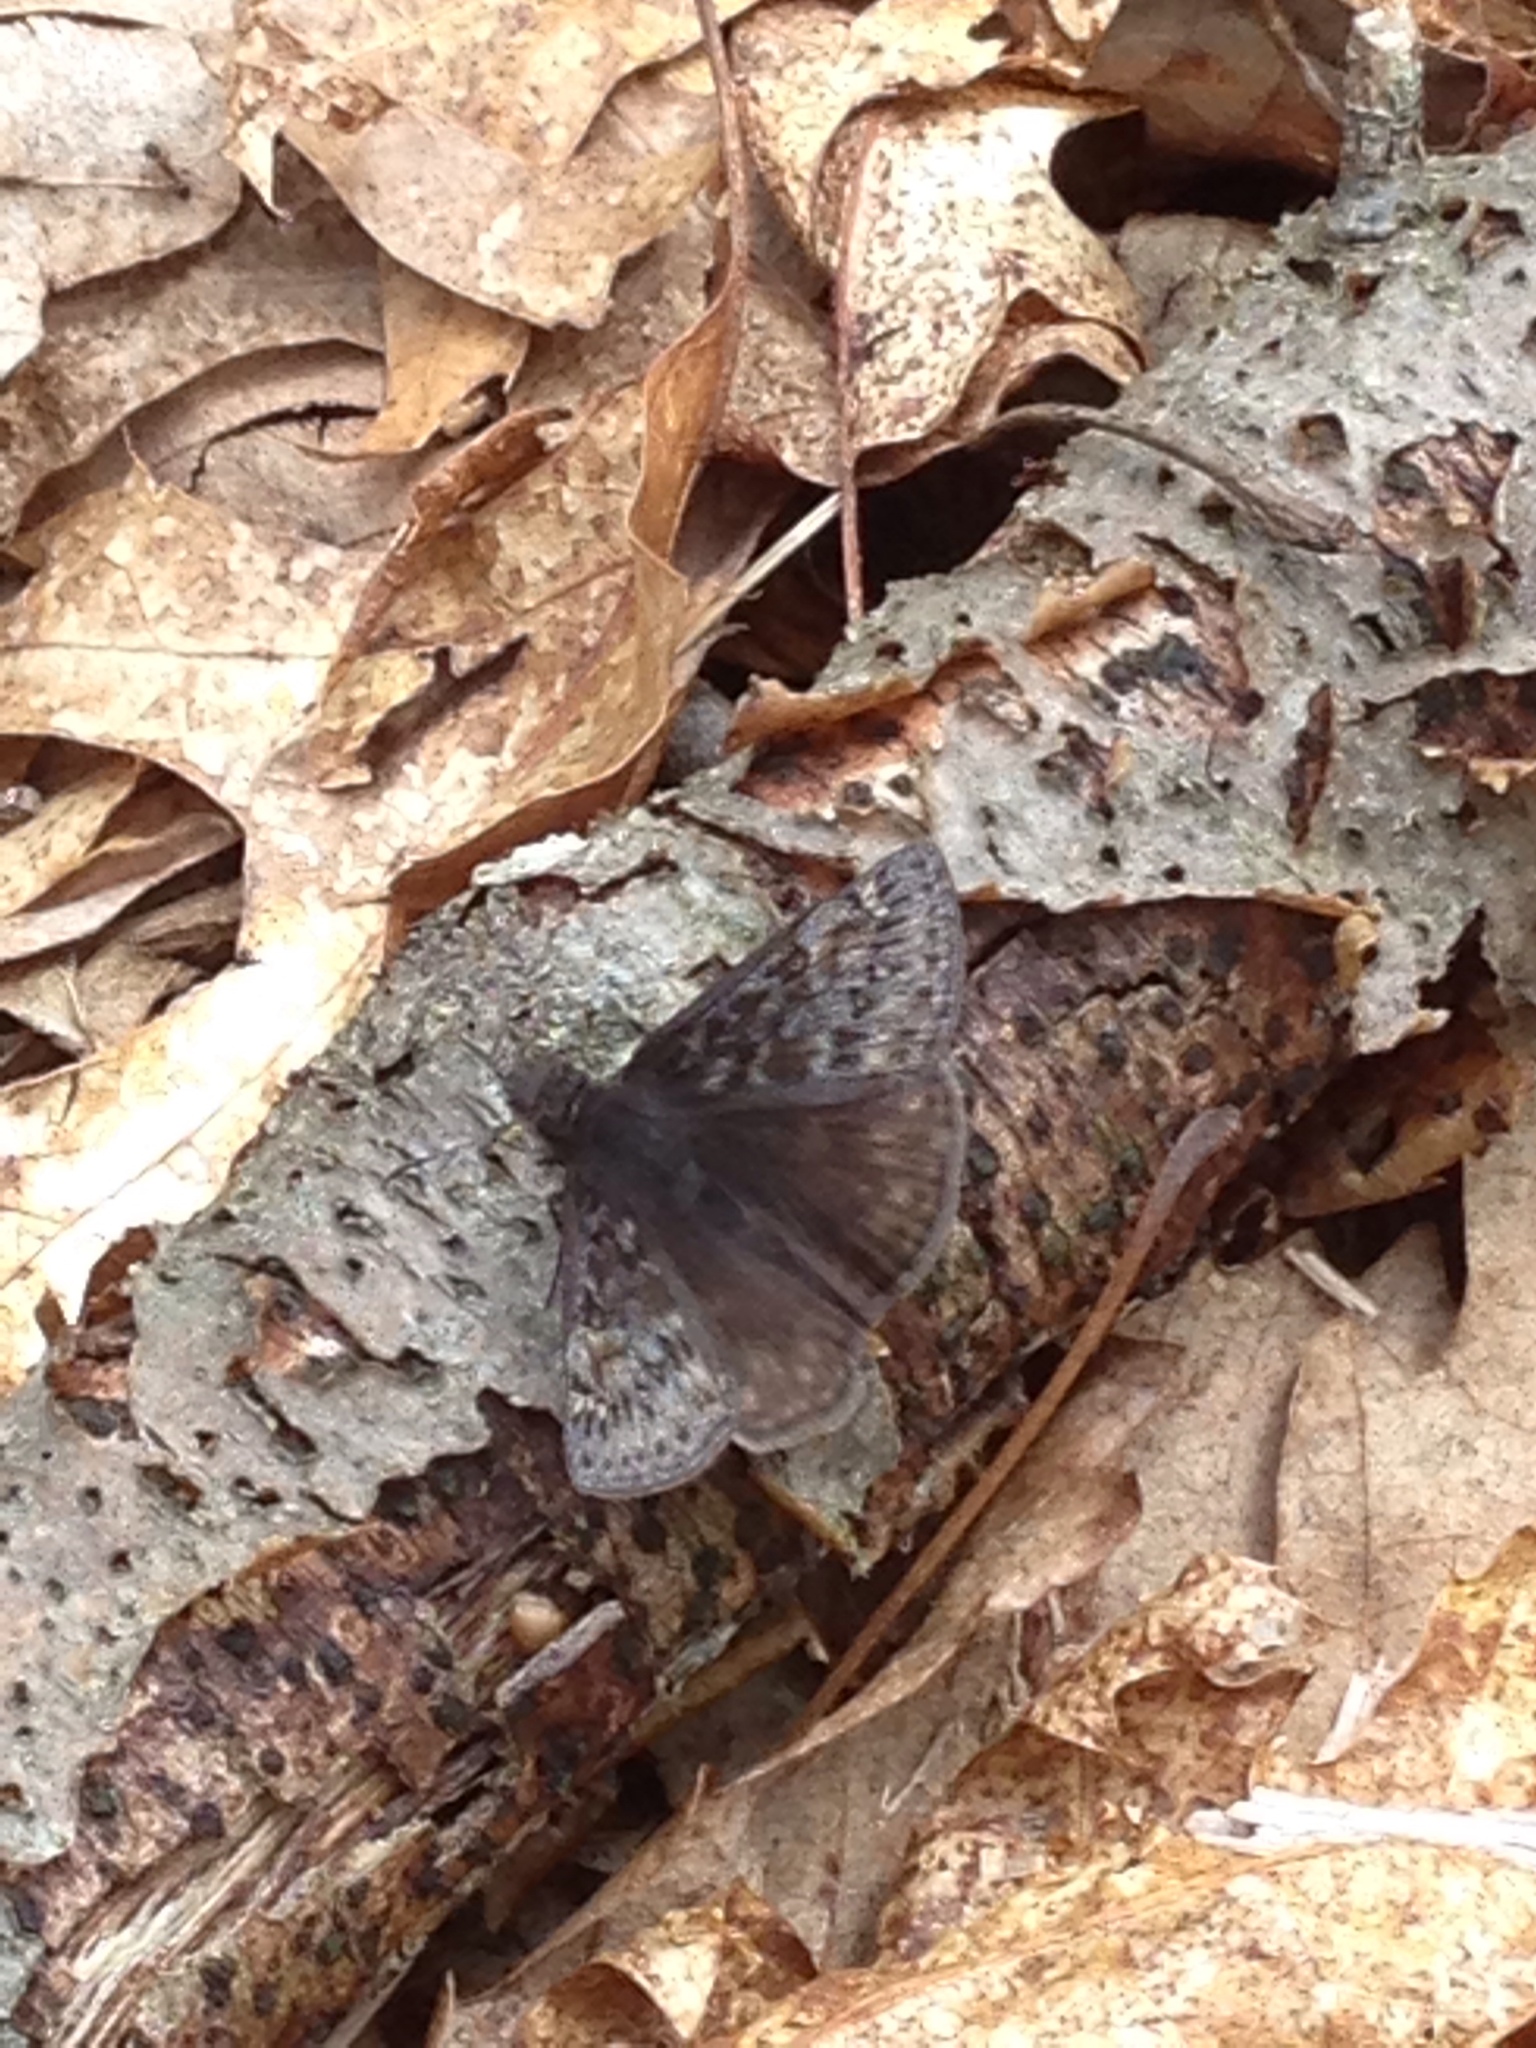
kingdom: Animalia
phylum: Arthropoda
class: Insecta
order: Lepidoptera
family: Hesperiidae
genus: Erynnis
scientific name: Erynnis juvenalis
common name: Juvenal's duskywing
